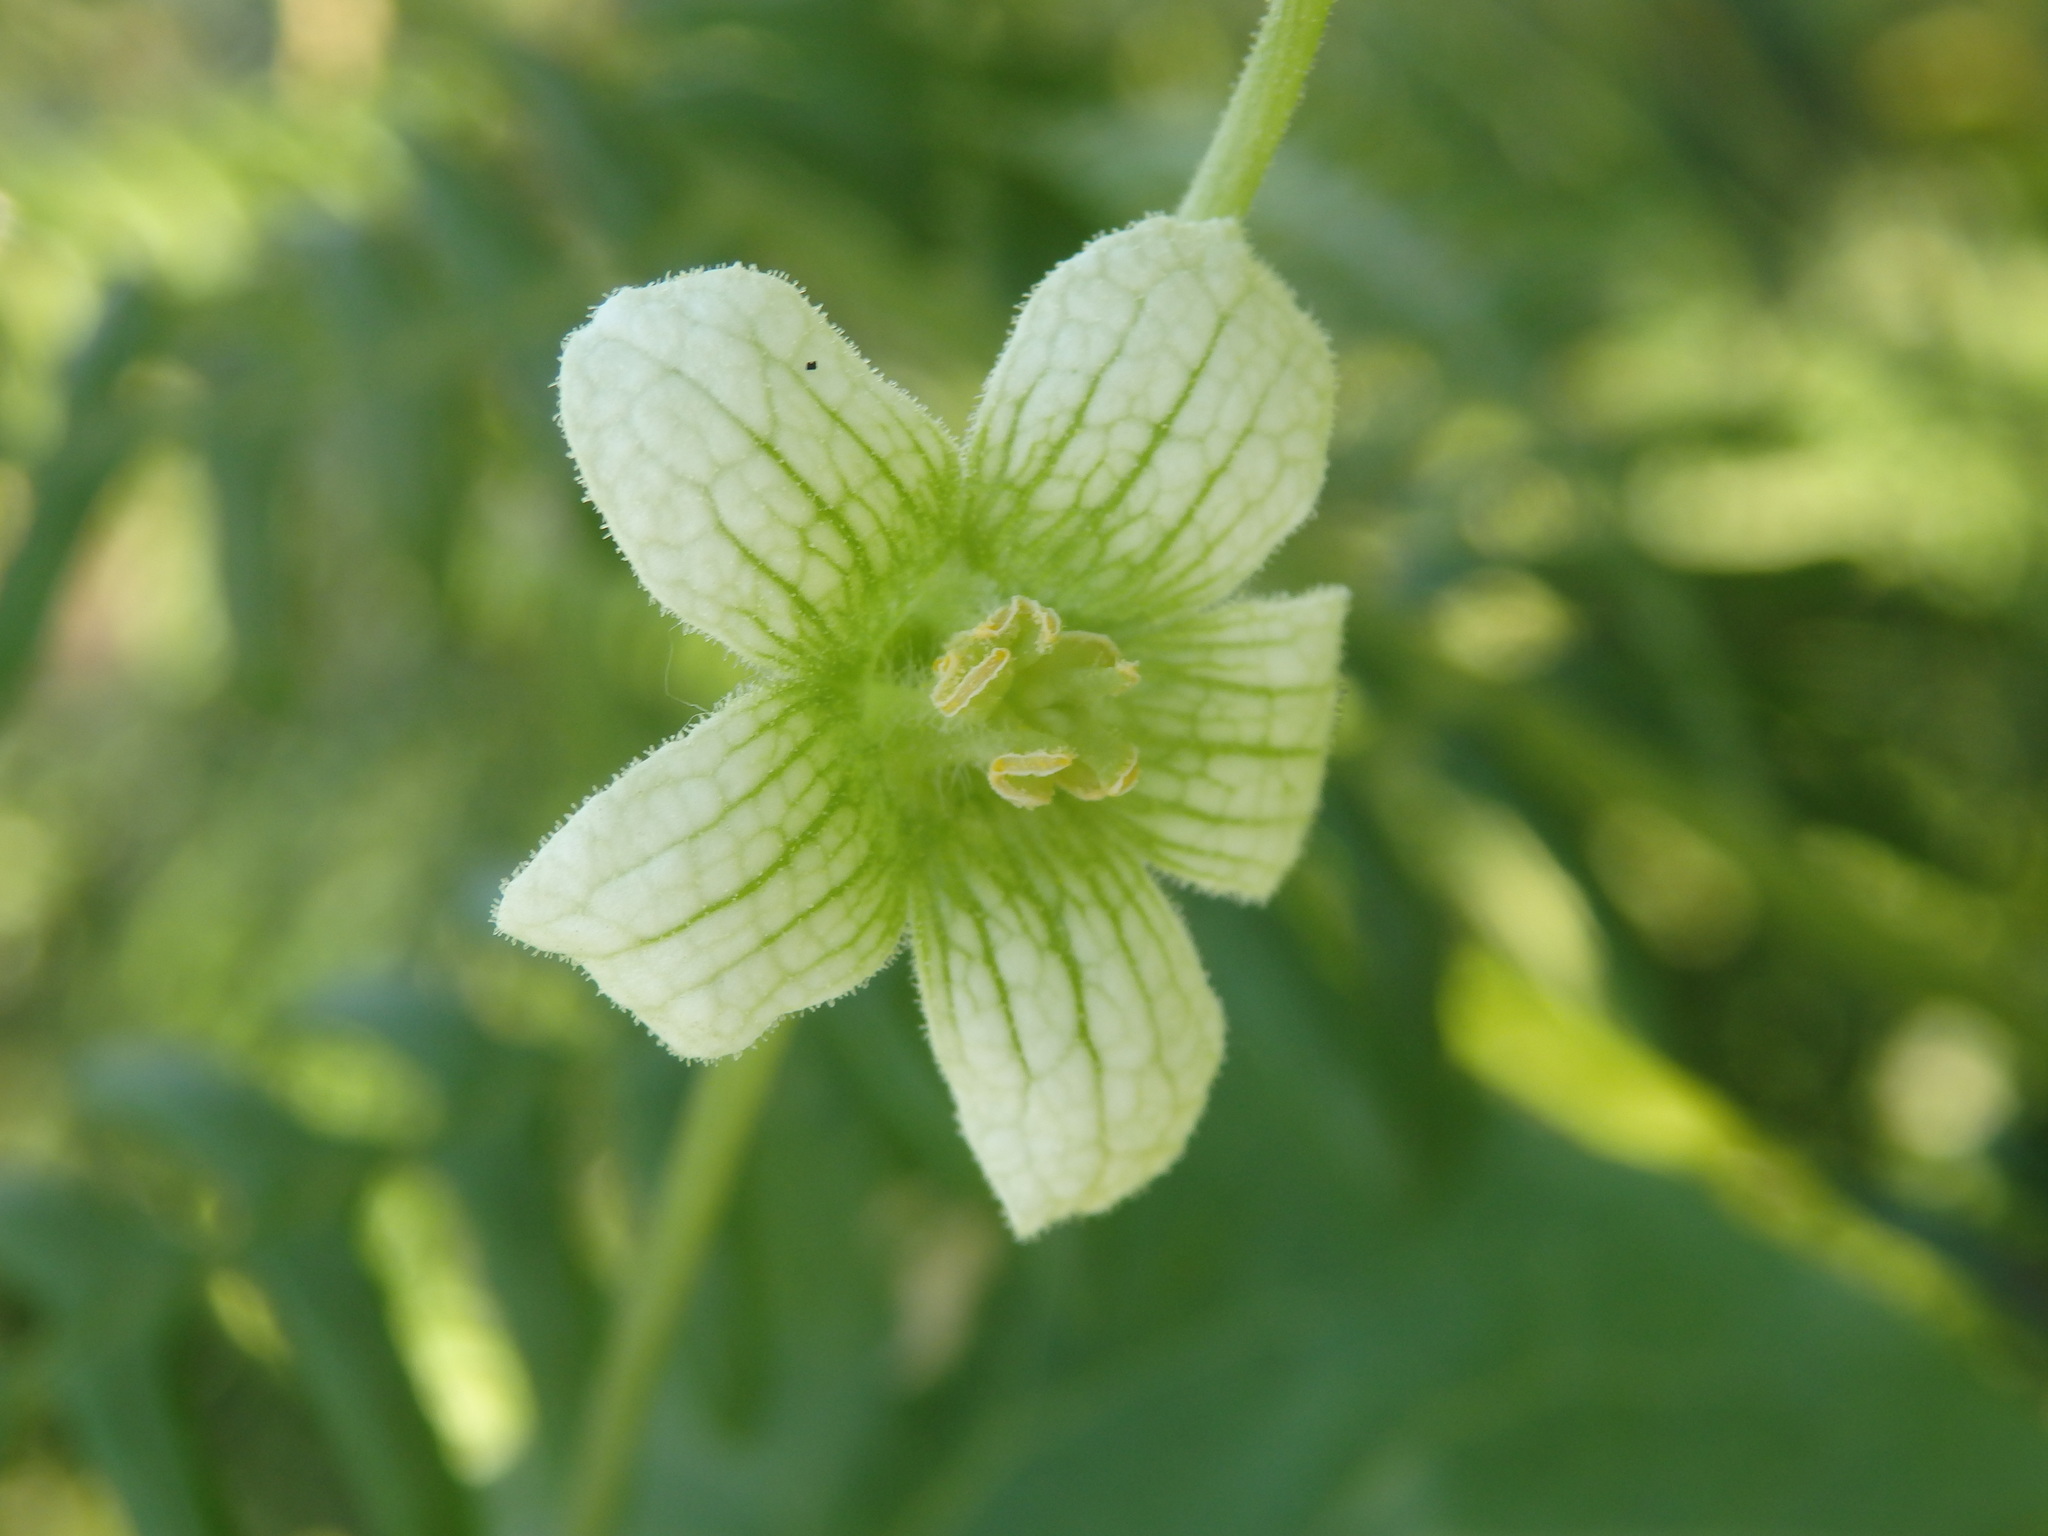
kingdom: Plantae
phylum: Tracheophyta
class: Magnoliopsida
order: Cucurbitales
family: Cucurbitaceae
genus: Bryonia
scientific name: Bryonia dioica
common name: White bryony
